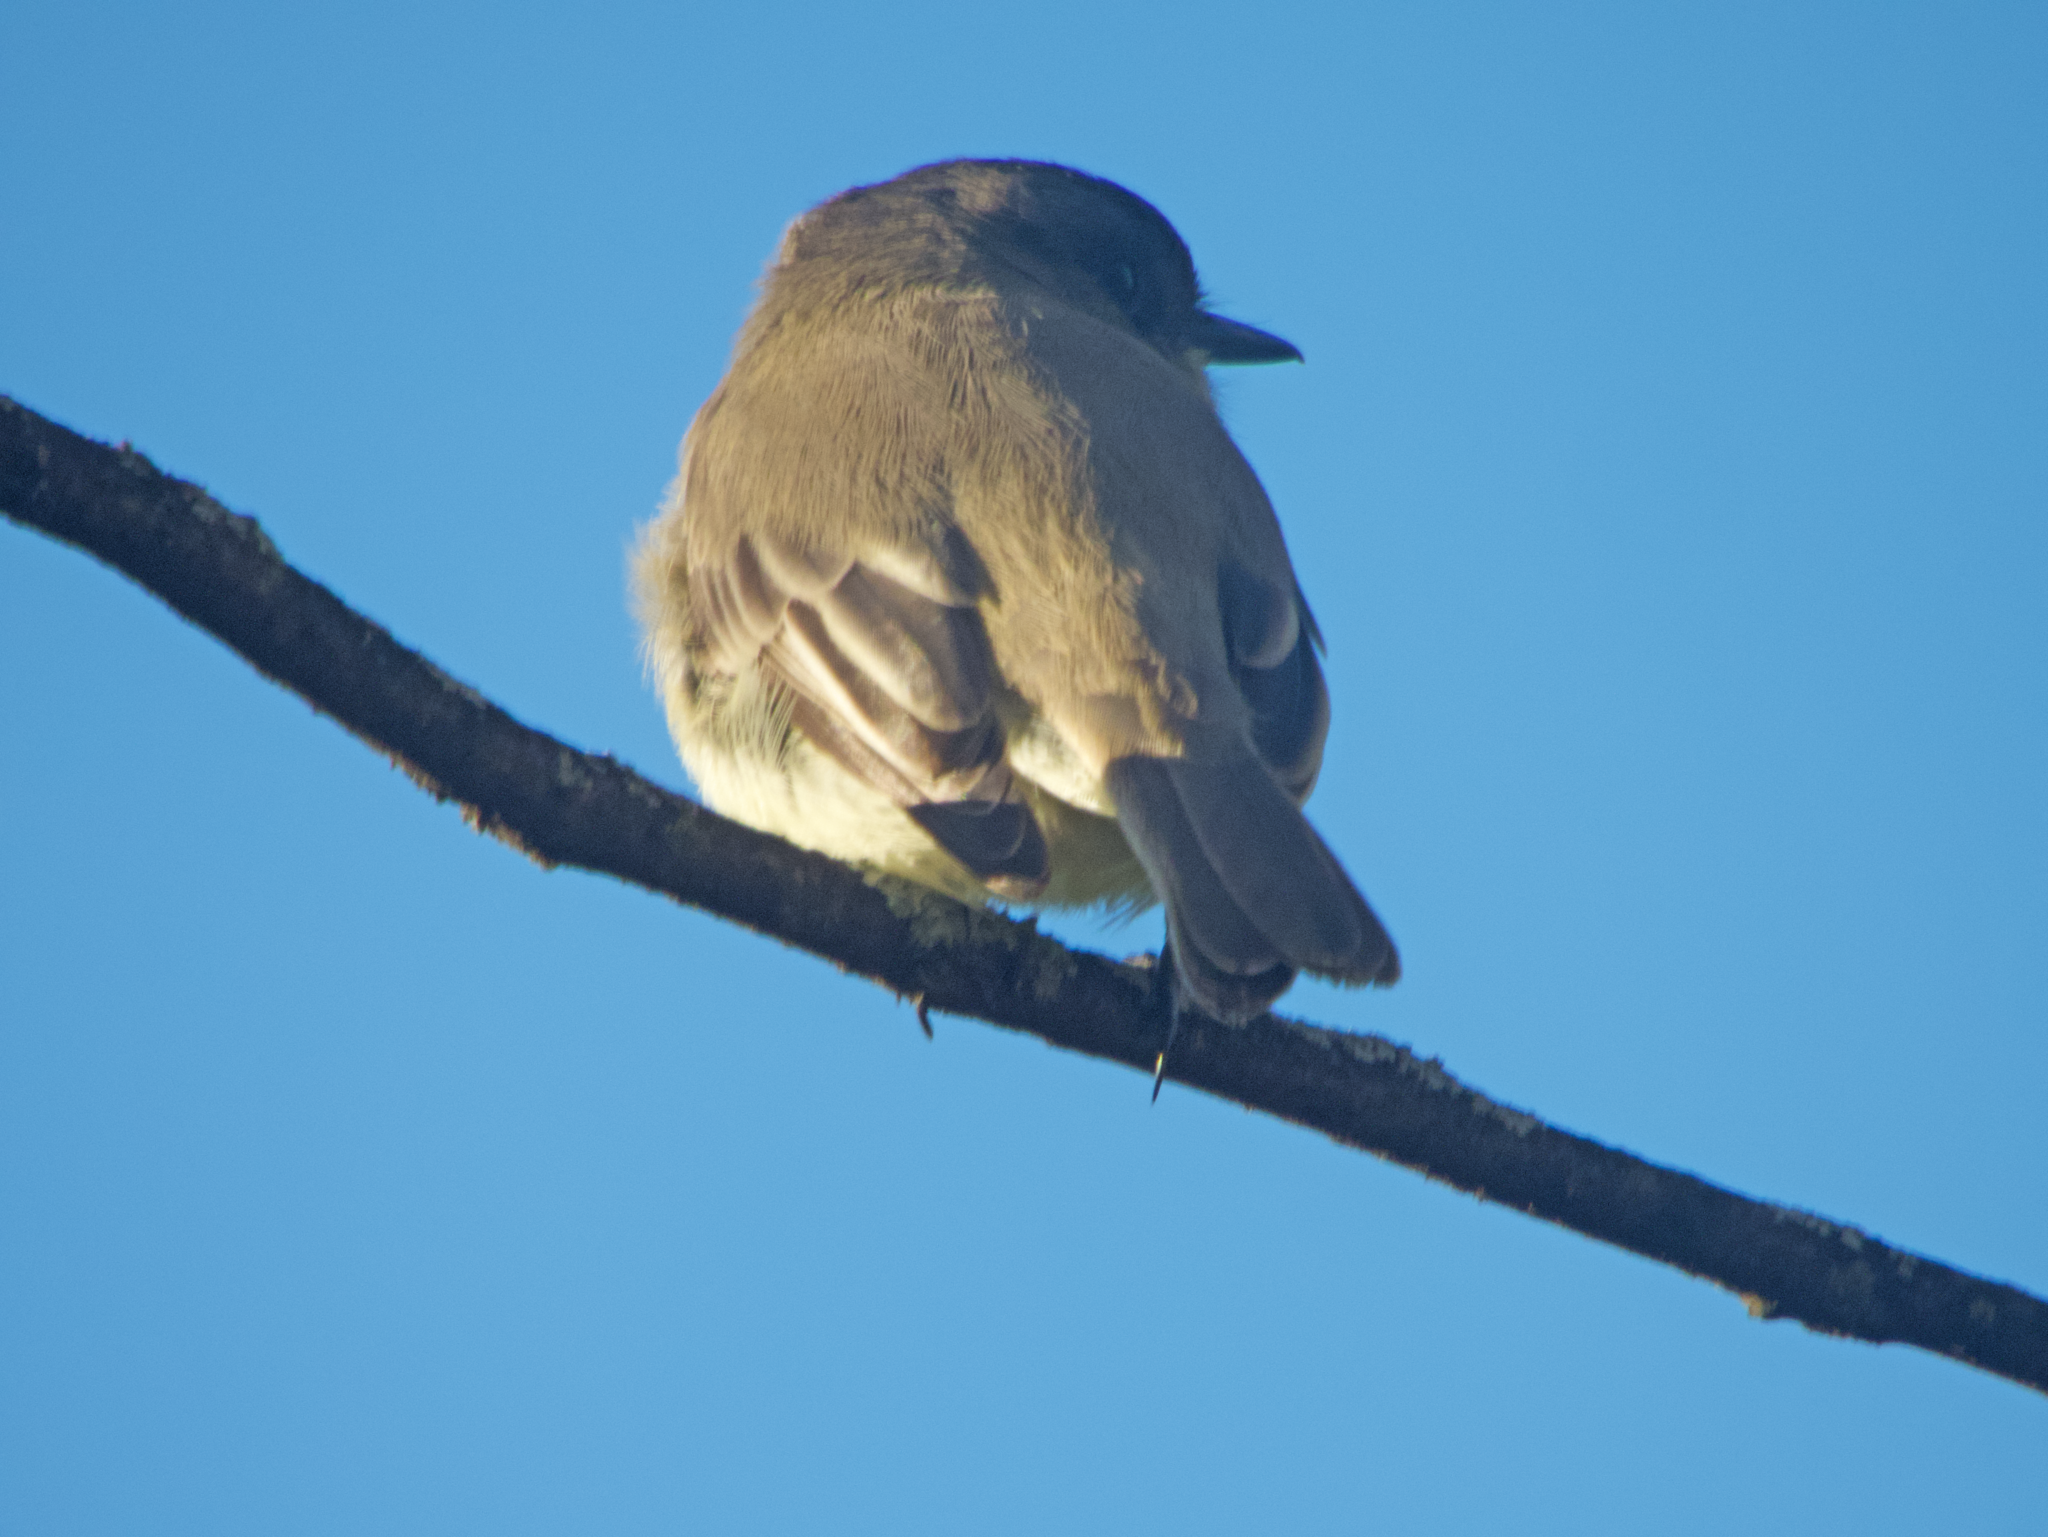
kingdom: Animalia
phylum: Chordata
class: Aves
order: Passeriformes
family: Tyrannidae
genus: Sayornis
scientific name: Sayornis phoebe
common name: Eastern phoebe
